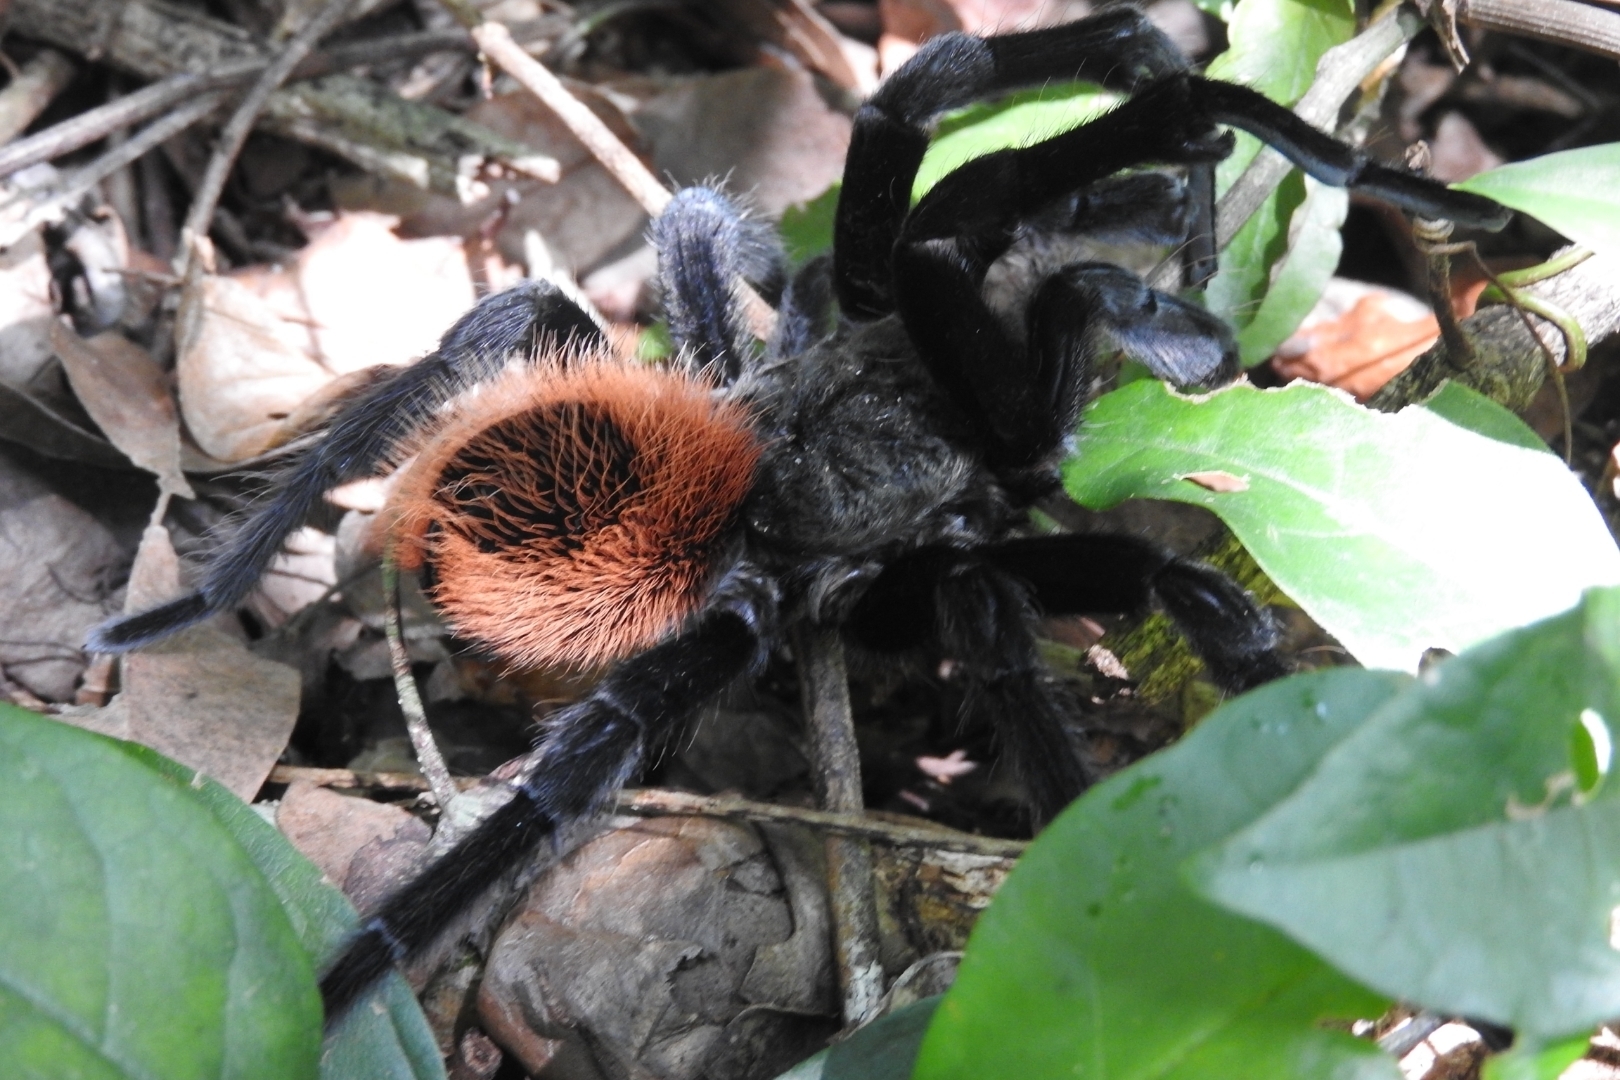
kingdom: Animalia
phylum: Arthropoda
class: Arachnida
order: Araneae
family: Theraphosidae
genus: Tliltocatl
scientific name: Tliltocatl epicureanus
